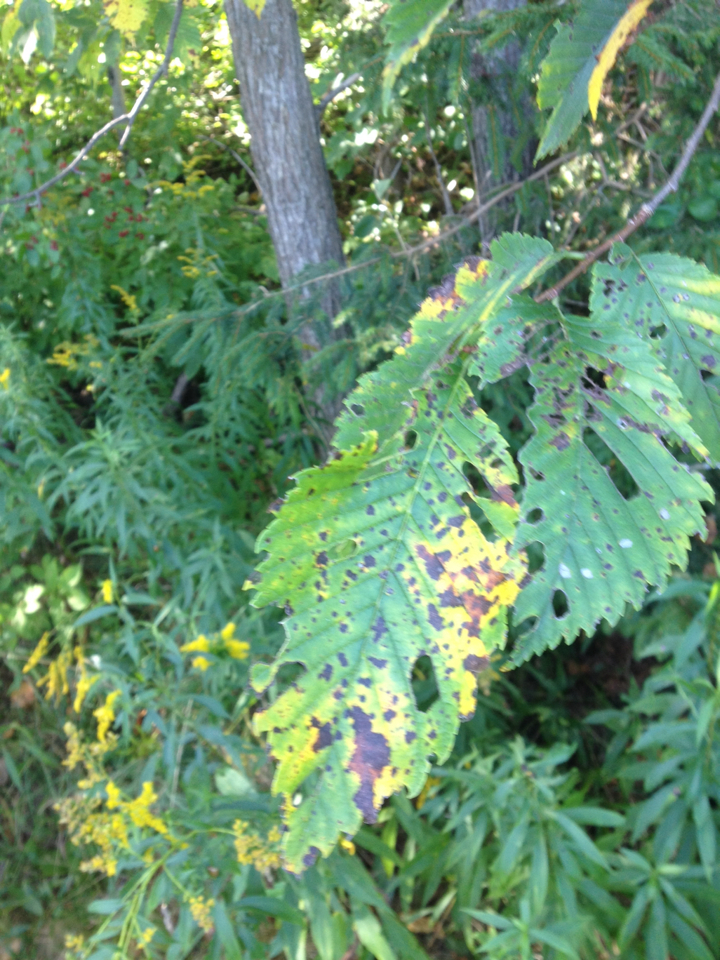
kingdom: Plantae
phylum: Tracheophyta
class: Magnoliopsida
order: Rosales
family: Ulmaceae
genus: Ulmus
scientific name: Ulmus americana
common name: American elm
